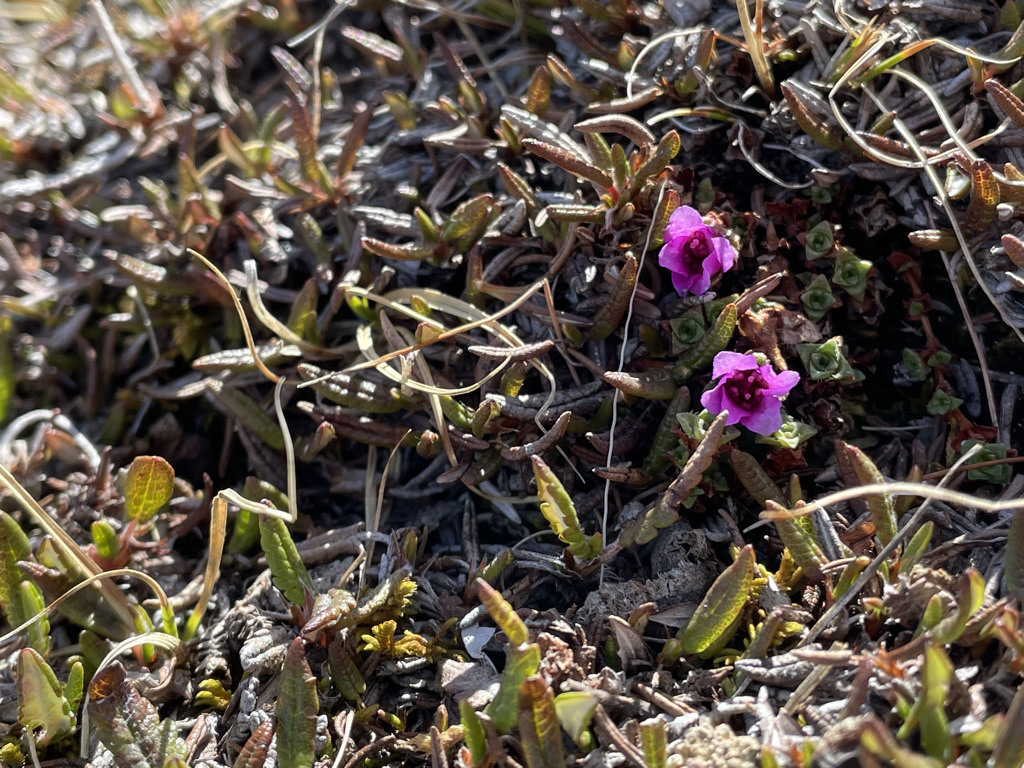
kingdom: Plantae
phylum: Tracheophyta
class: Magnoliopsida
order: Saxifragales
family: Saxifragaceae
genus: Saxifraga
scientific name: Saxifraga oppositifolia
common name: Purple saxifrage
